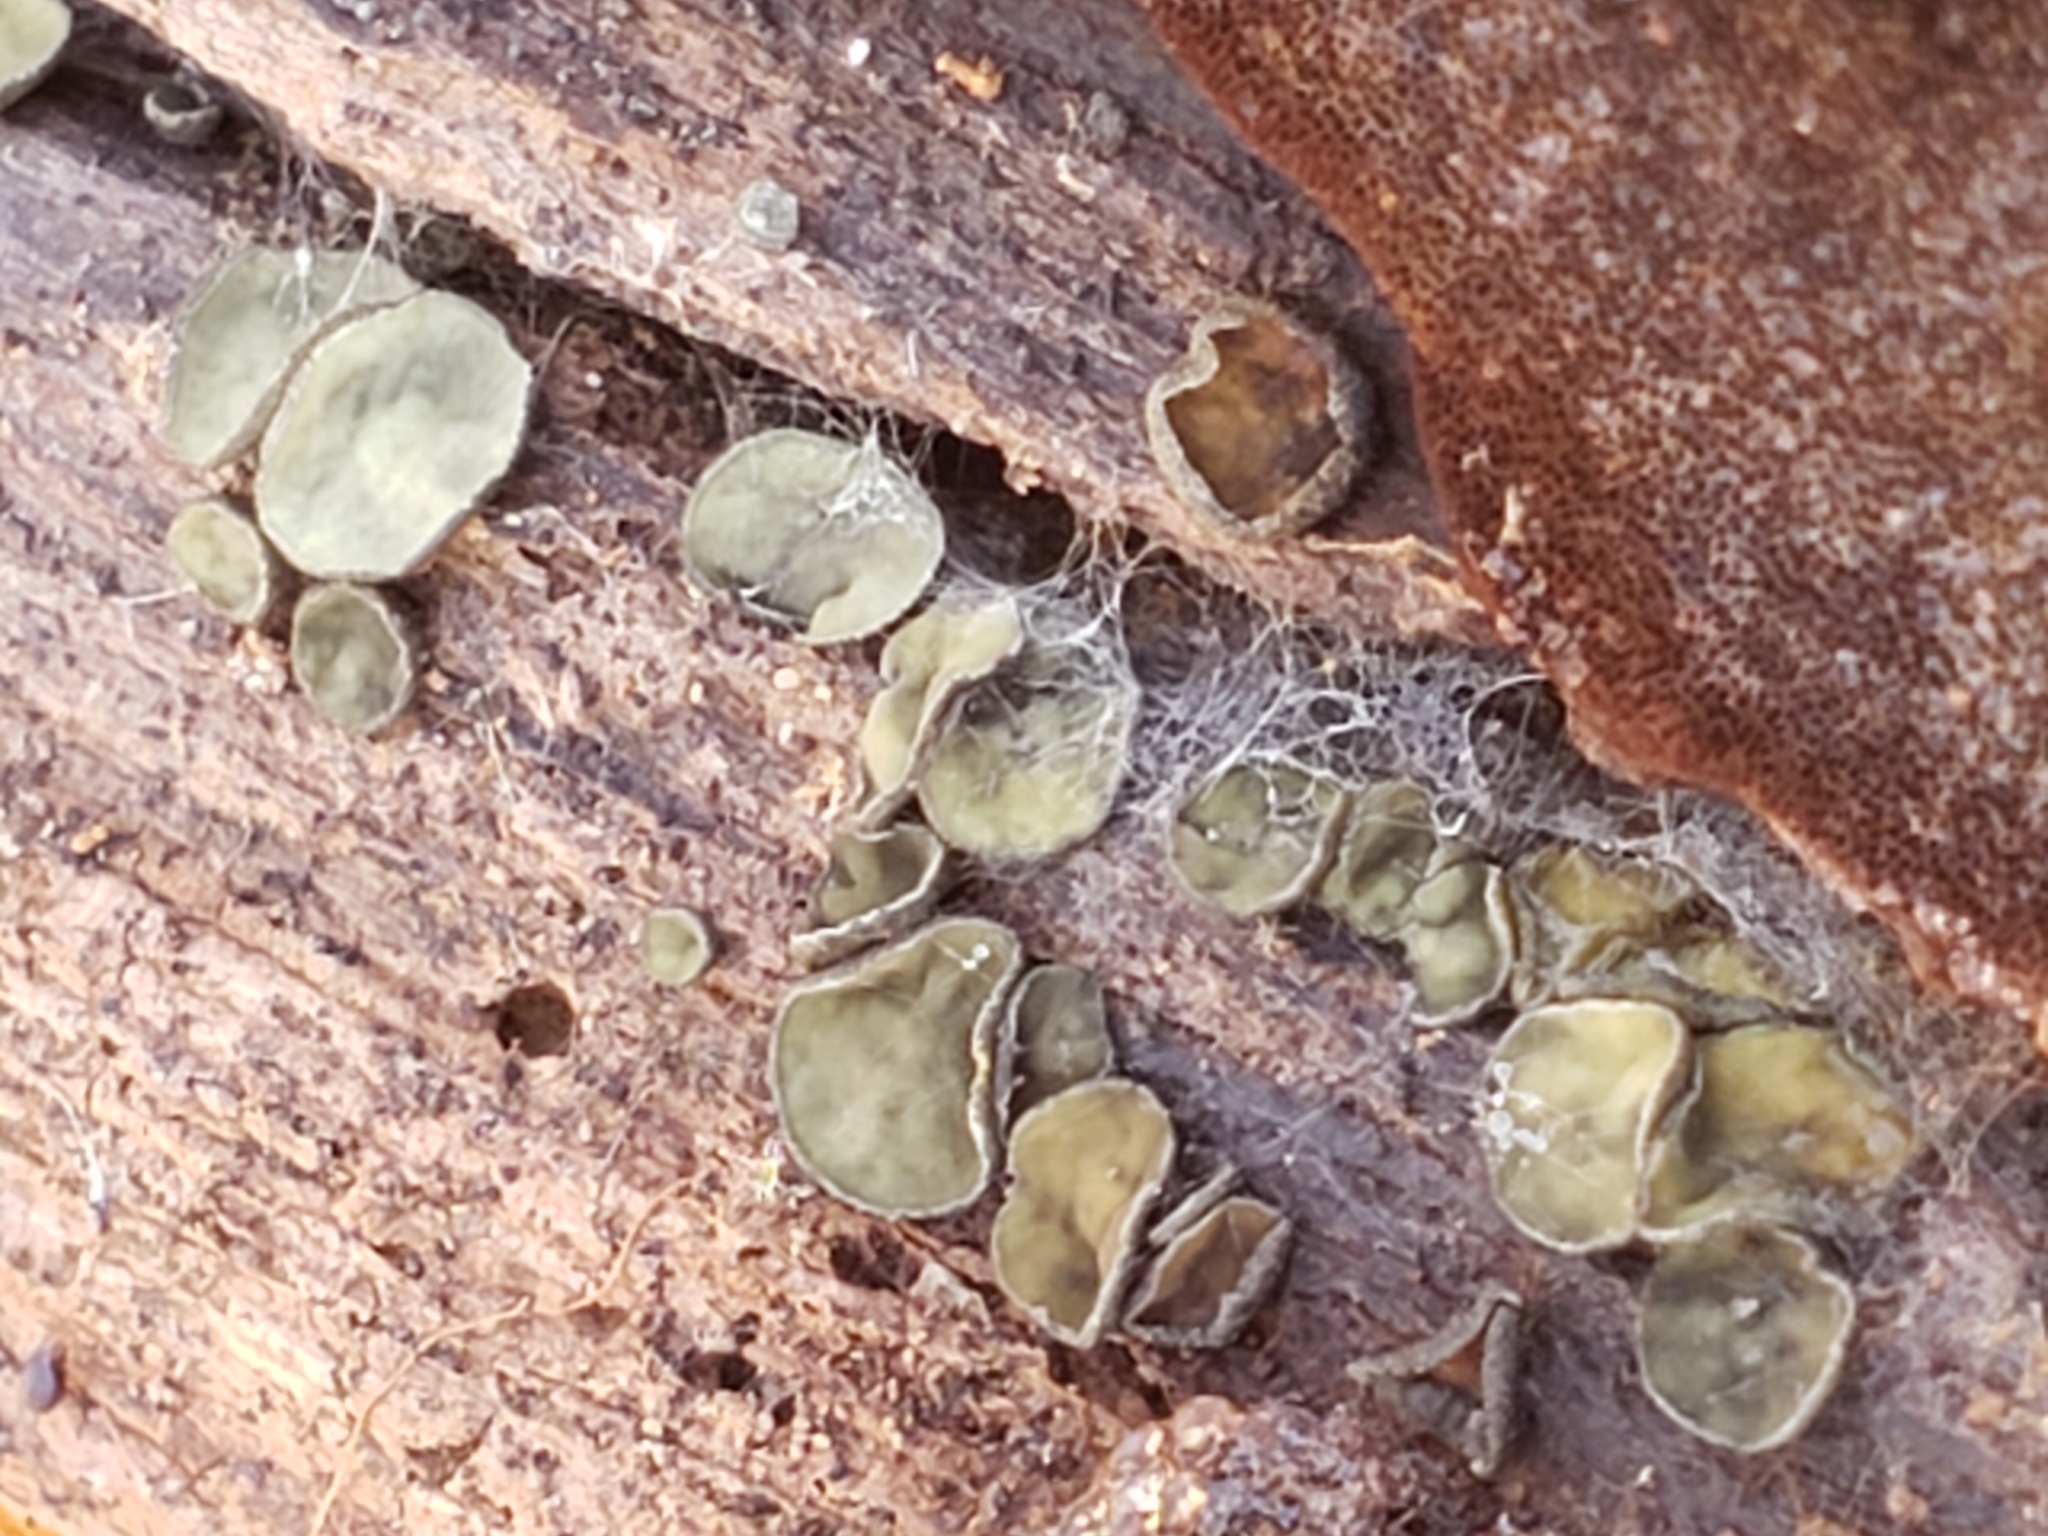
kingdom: Fungi
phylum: Ascomycota
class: Leotiomycetes
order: Helotiales
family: Chlorospleniaceae
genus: Chlorosplenium
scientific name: Chlorosplenium chlora
